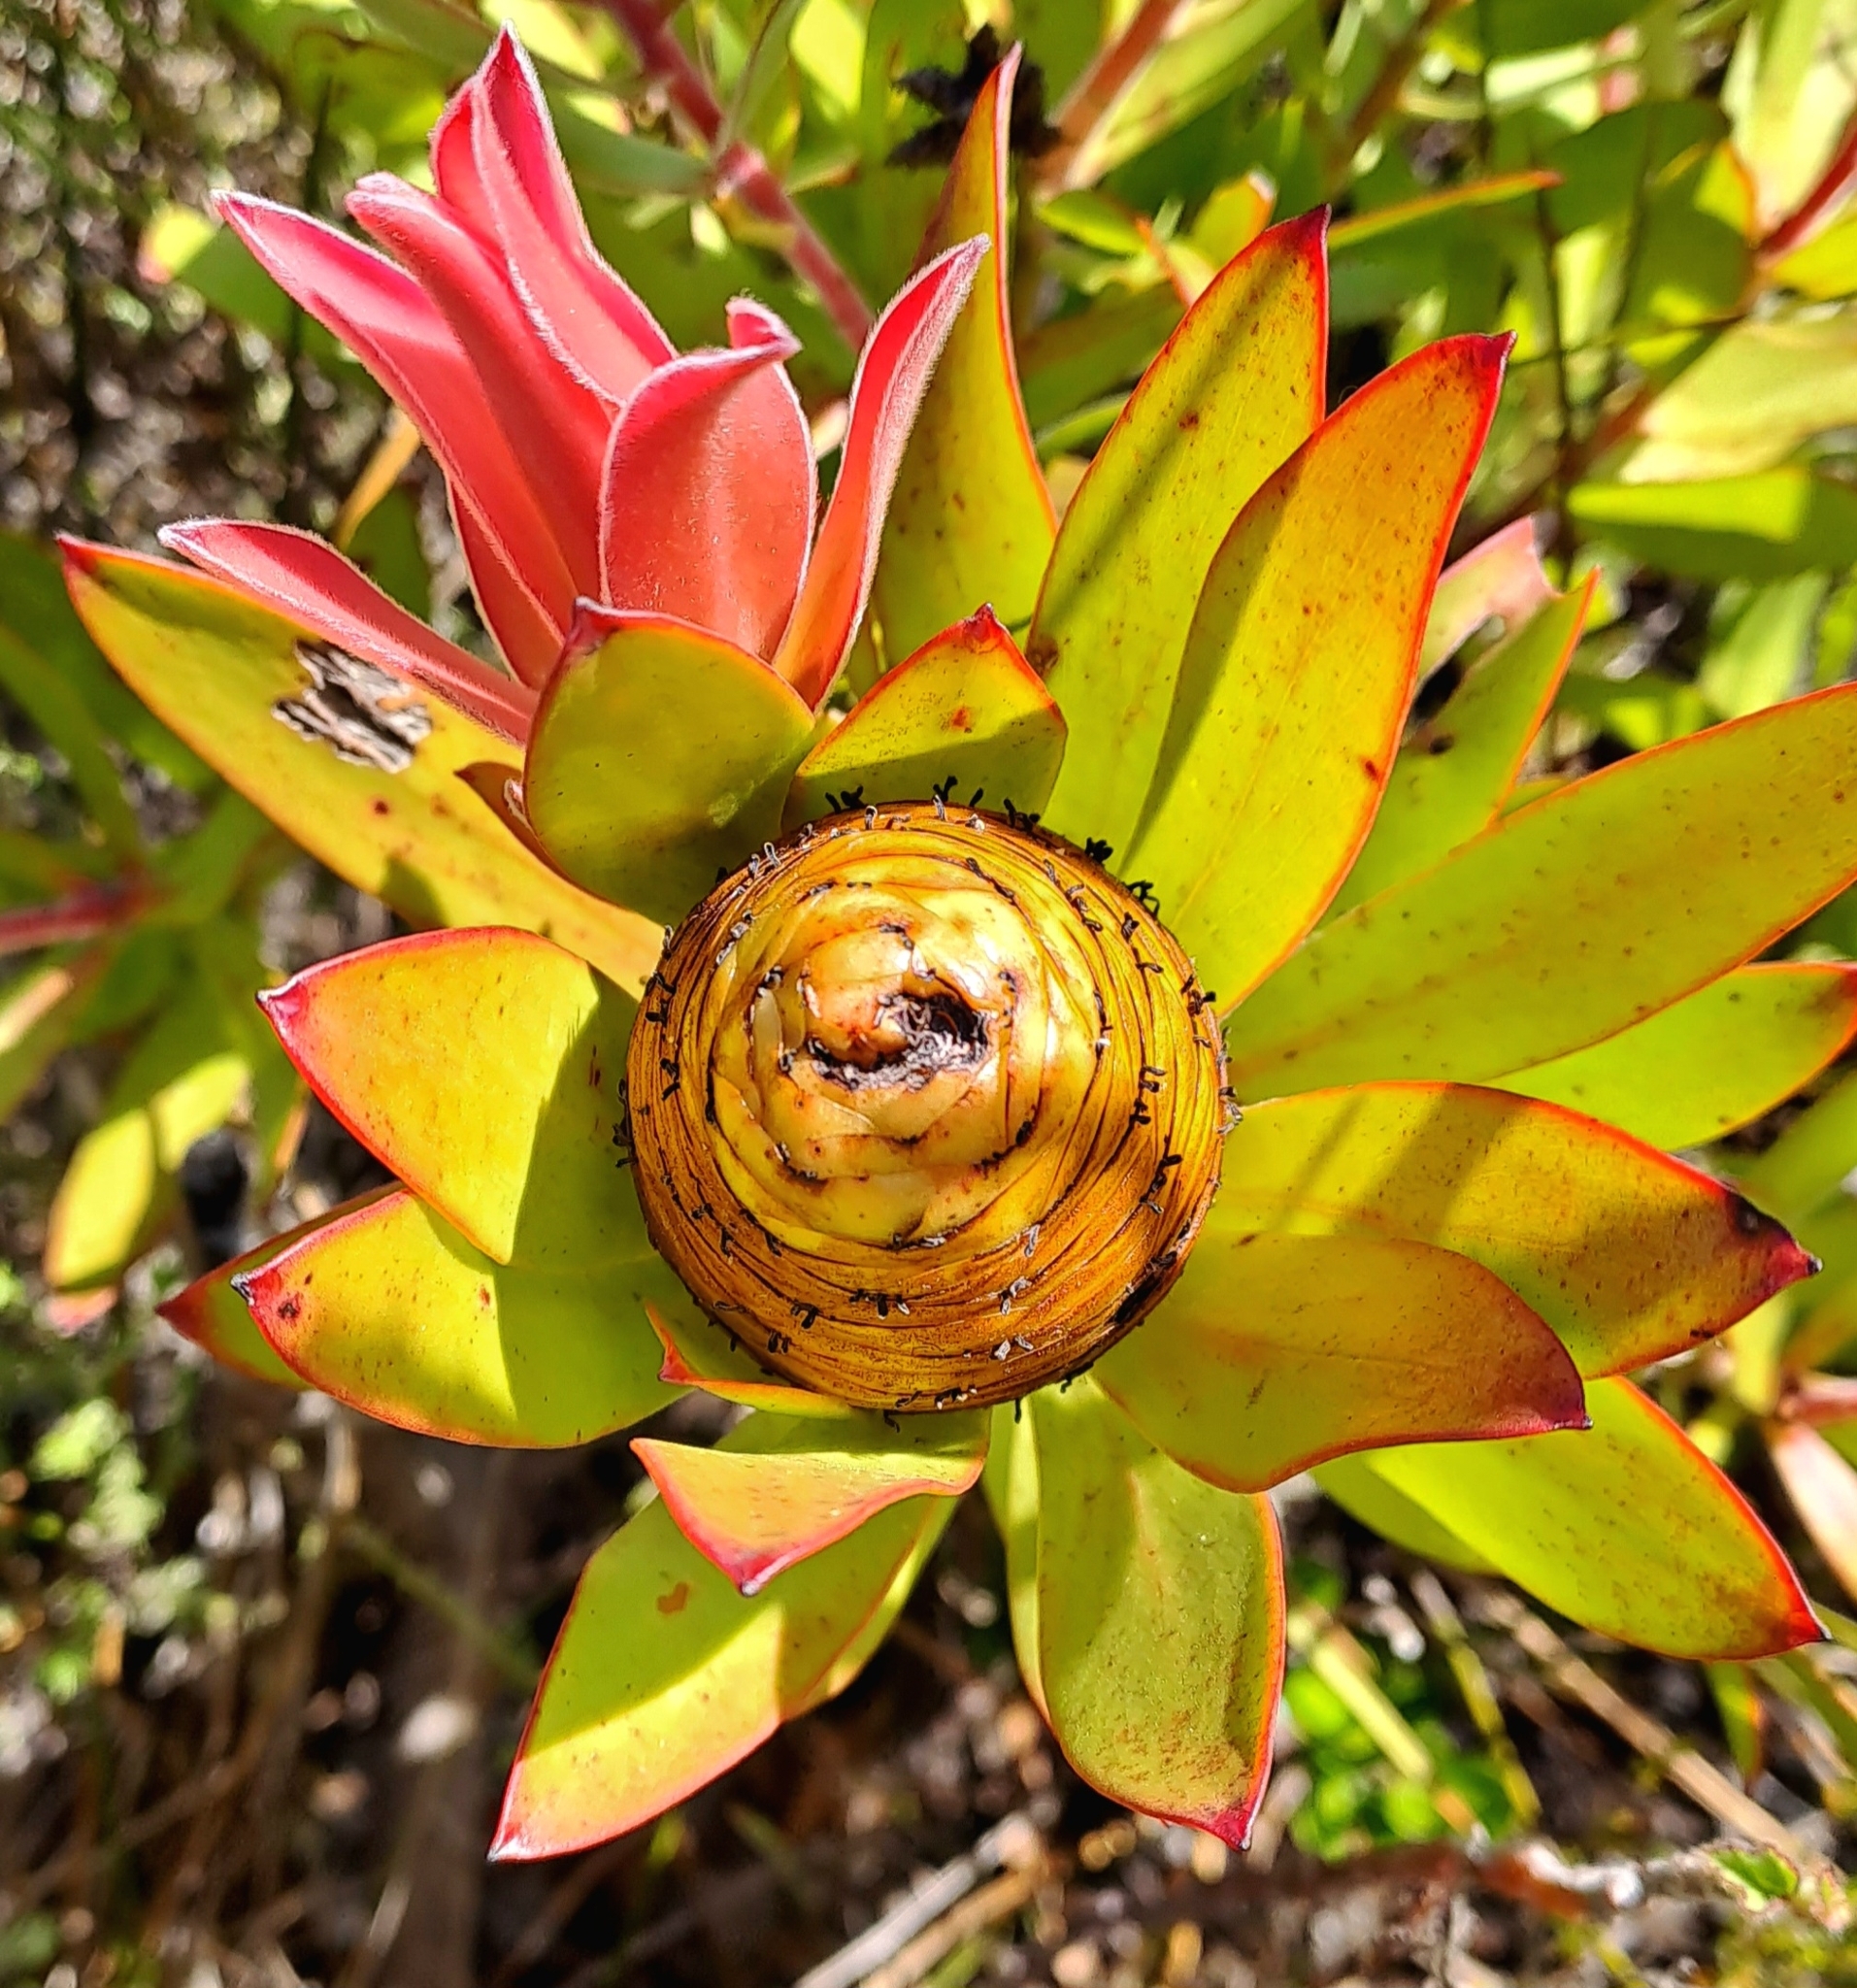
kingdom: Plantae
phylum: Tracheophyta
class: Magnoliopsida
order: Proteales
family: Proteaceae
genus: Leucadendron
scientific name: Leucadendron gandogeri
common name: Broad-leaf conebush
